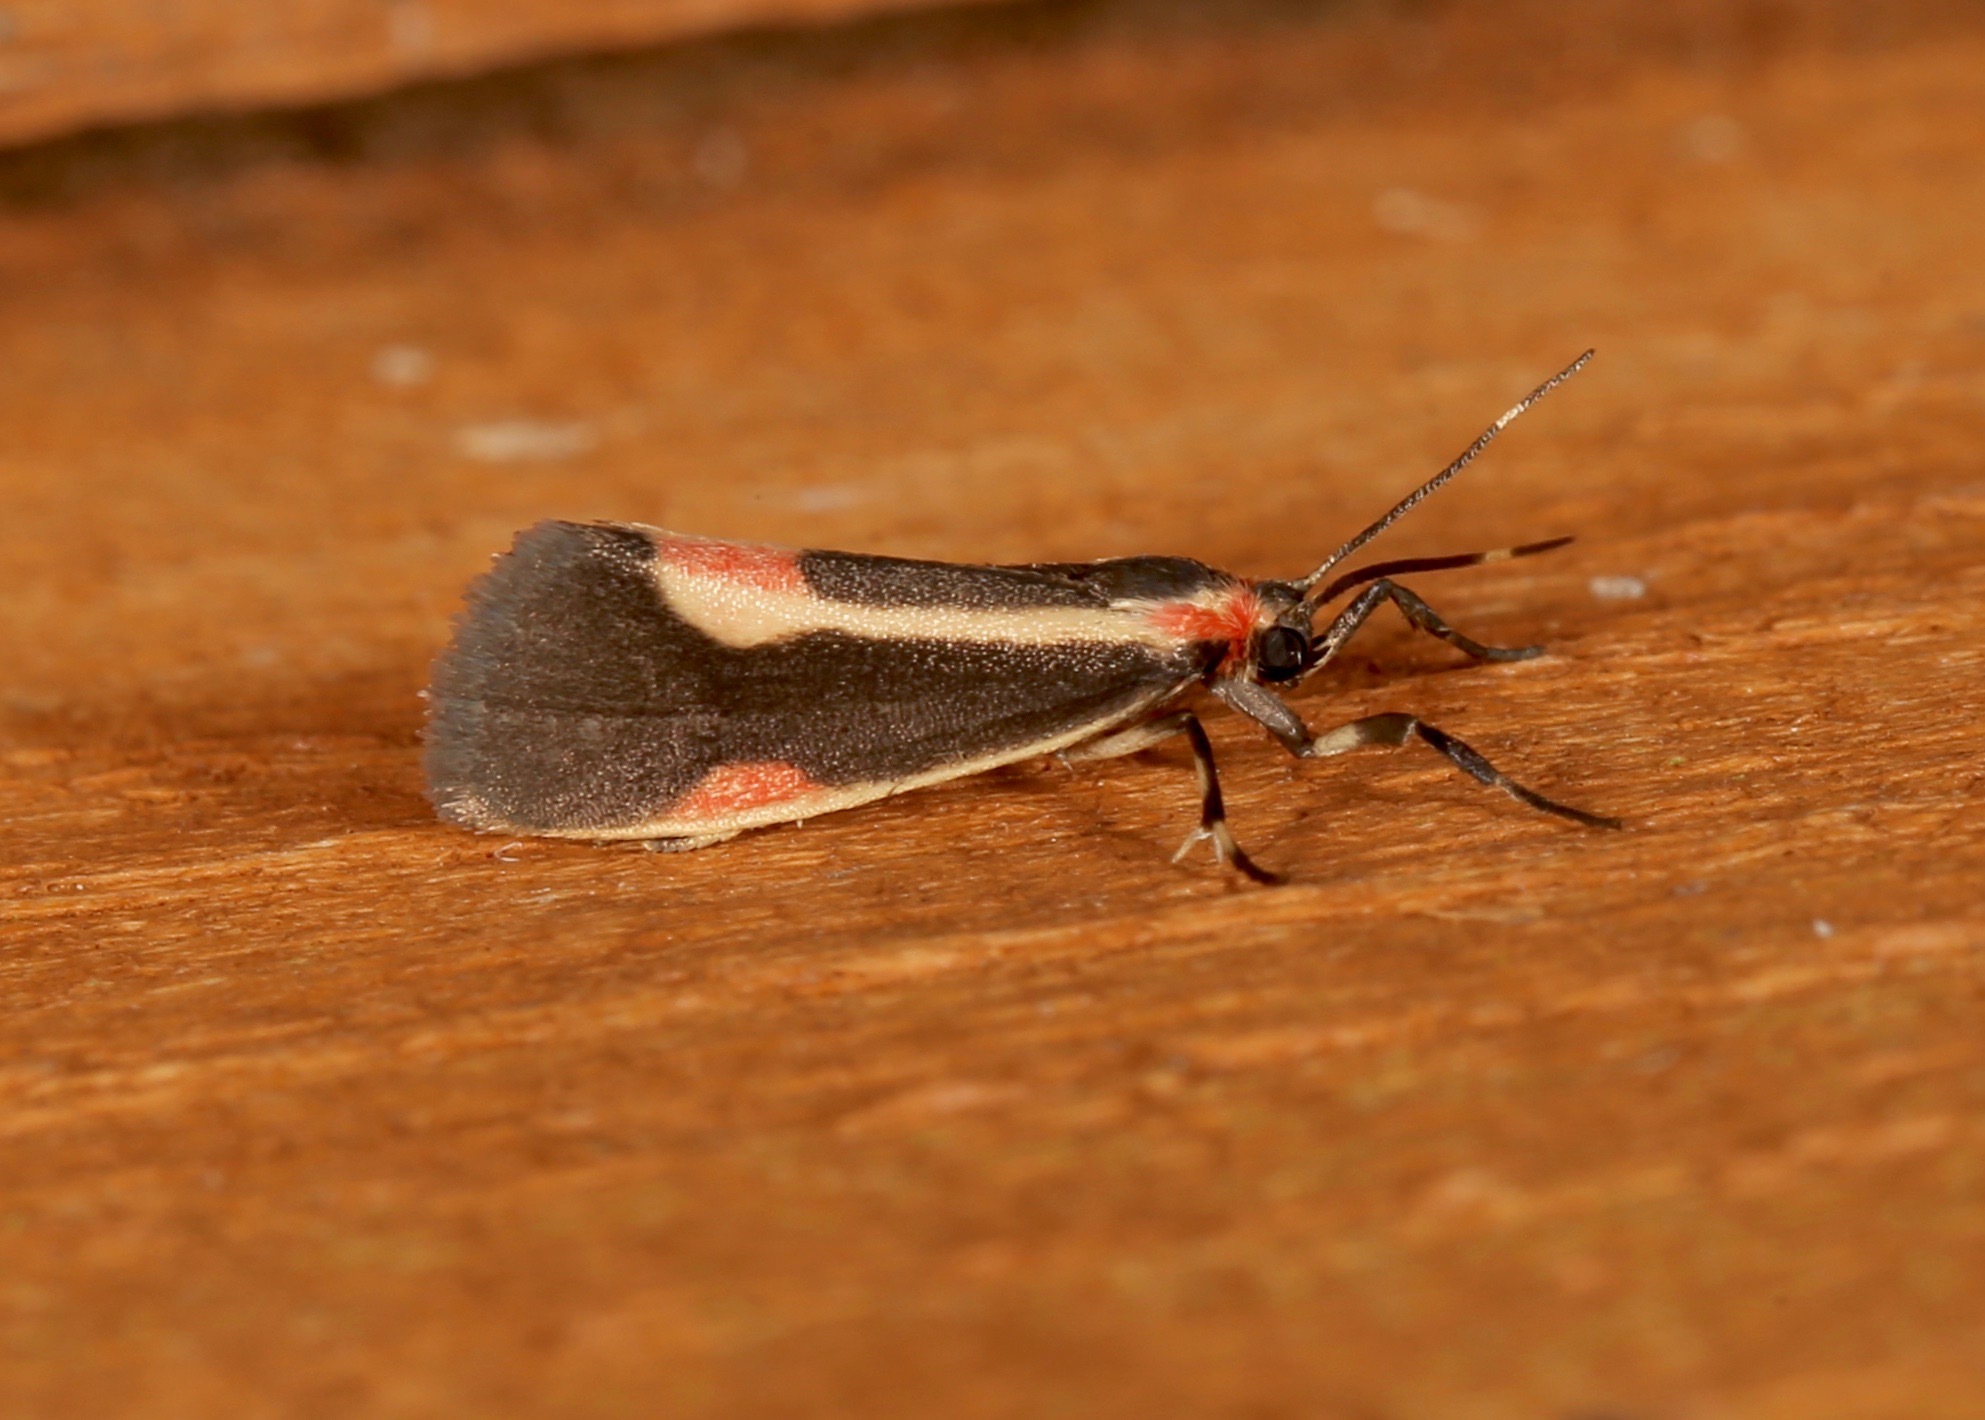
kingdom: Animalia
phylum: Arthropoda
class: Insecta
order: Lepidoptera
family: Erebidae
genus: Cisthene
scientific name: Cisthene packardii
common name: Packard's lichen moth
